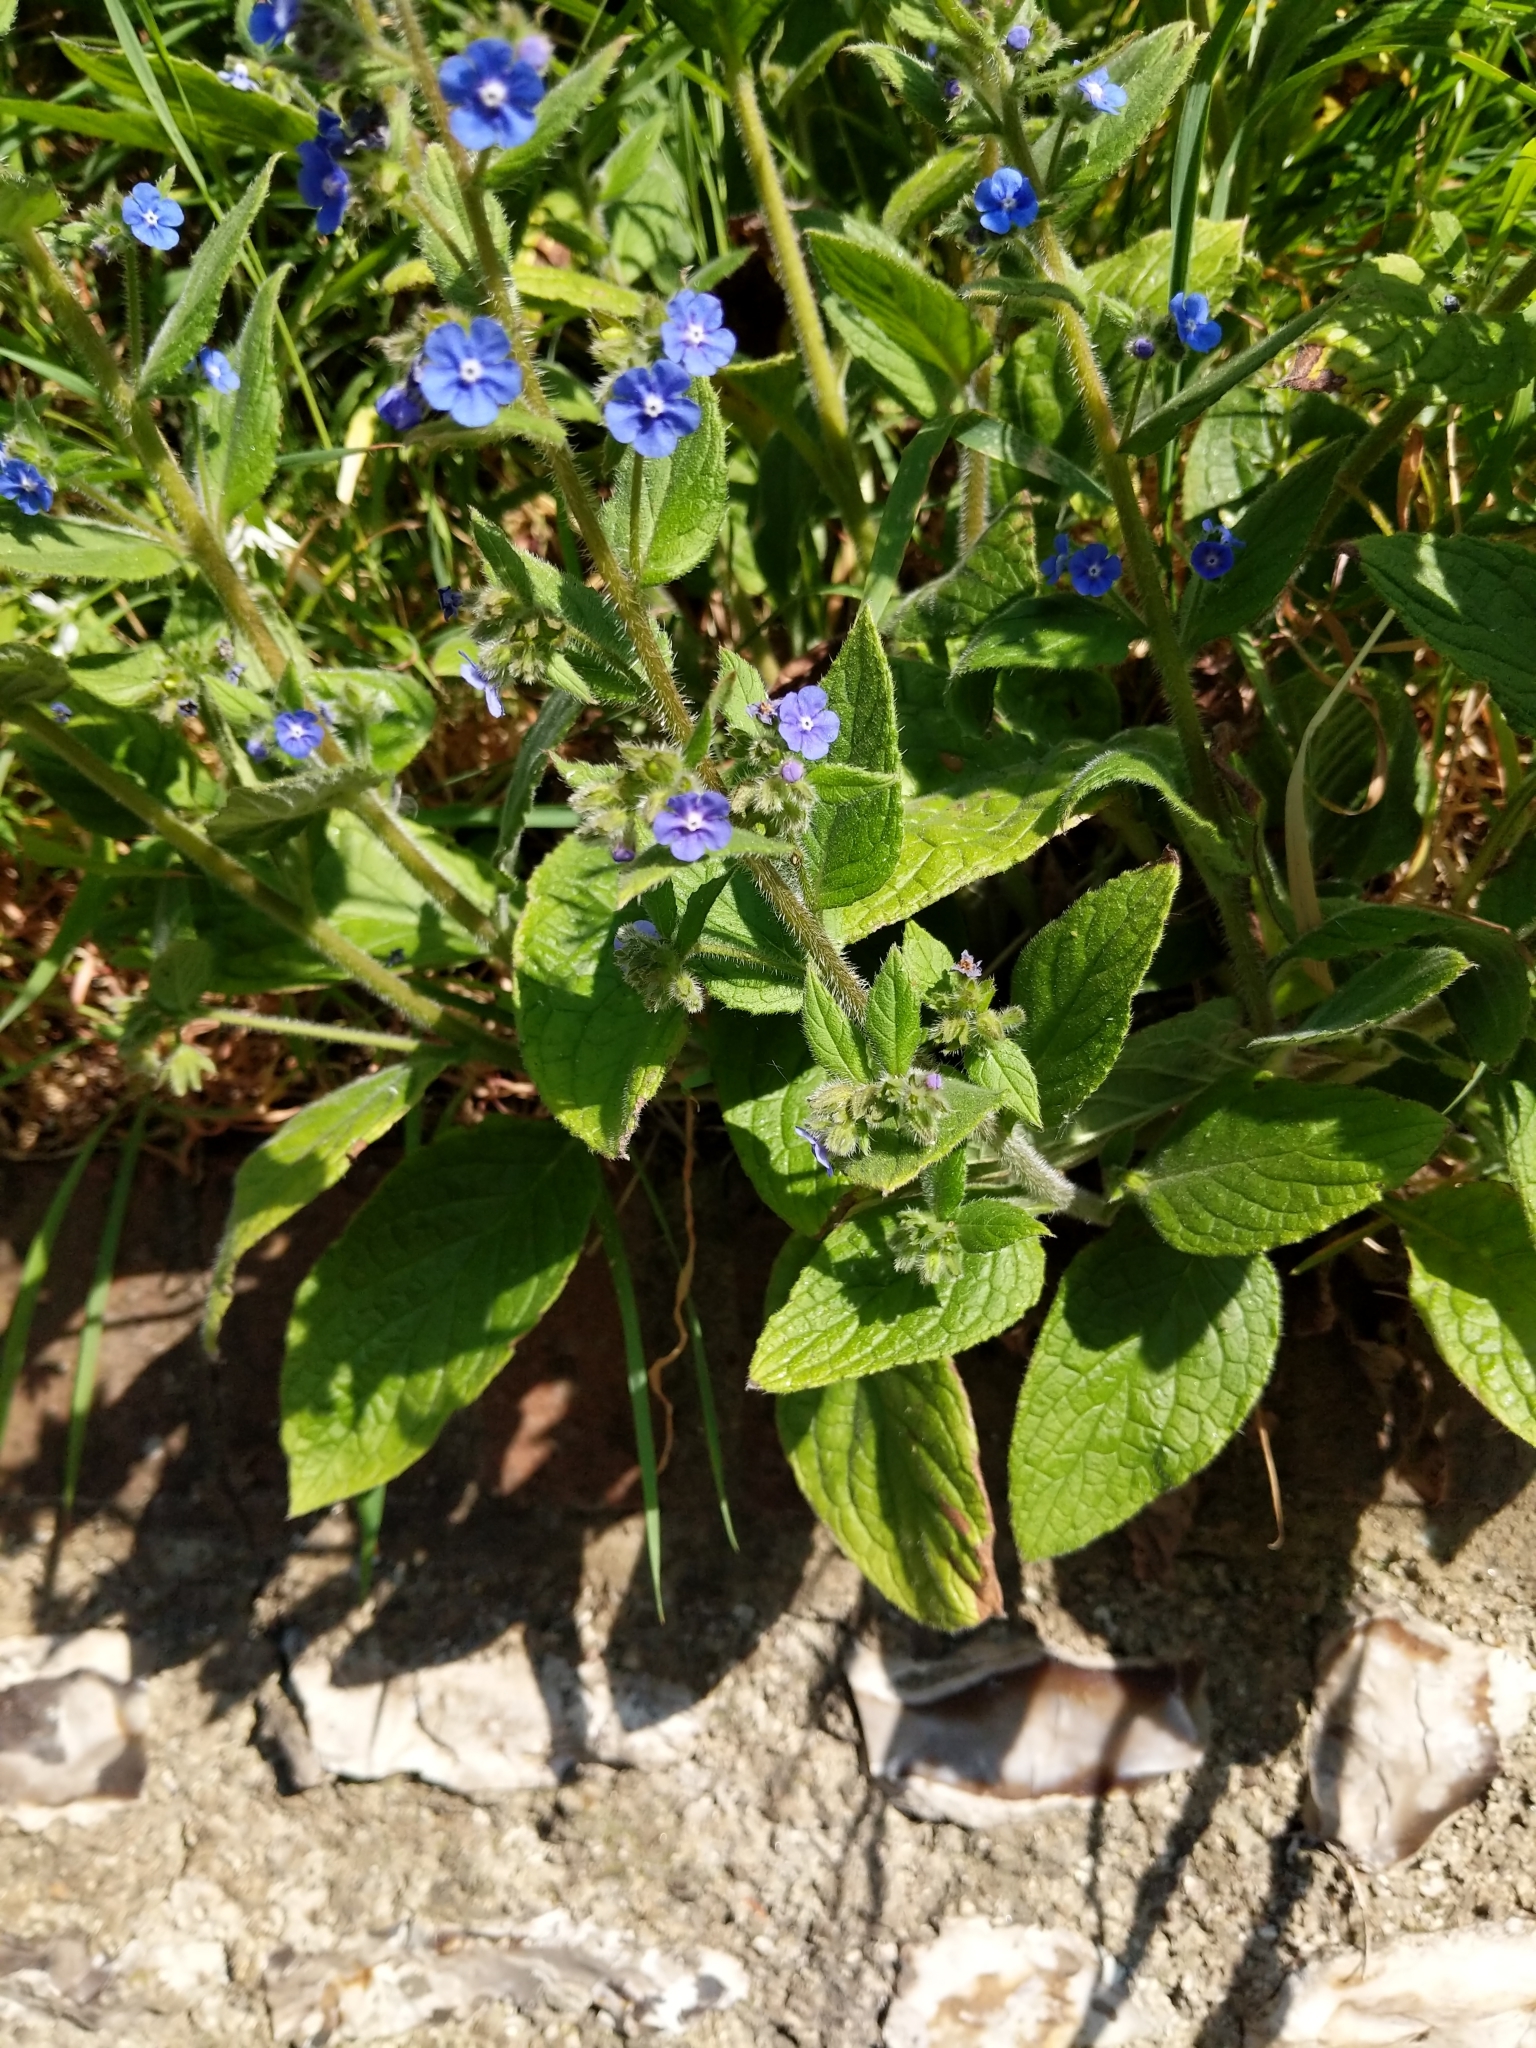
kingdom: Plantae
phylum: Tracheophyta
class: Magnoliopsida
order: Boraginales
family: Boraginaceae
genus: Pentaglottis
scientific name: Pentaglottis sempervirens
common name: Green alkanet
